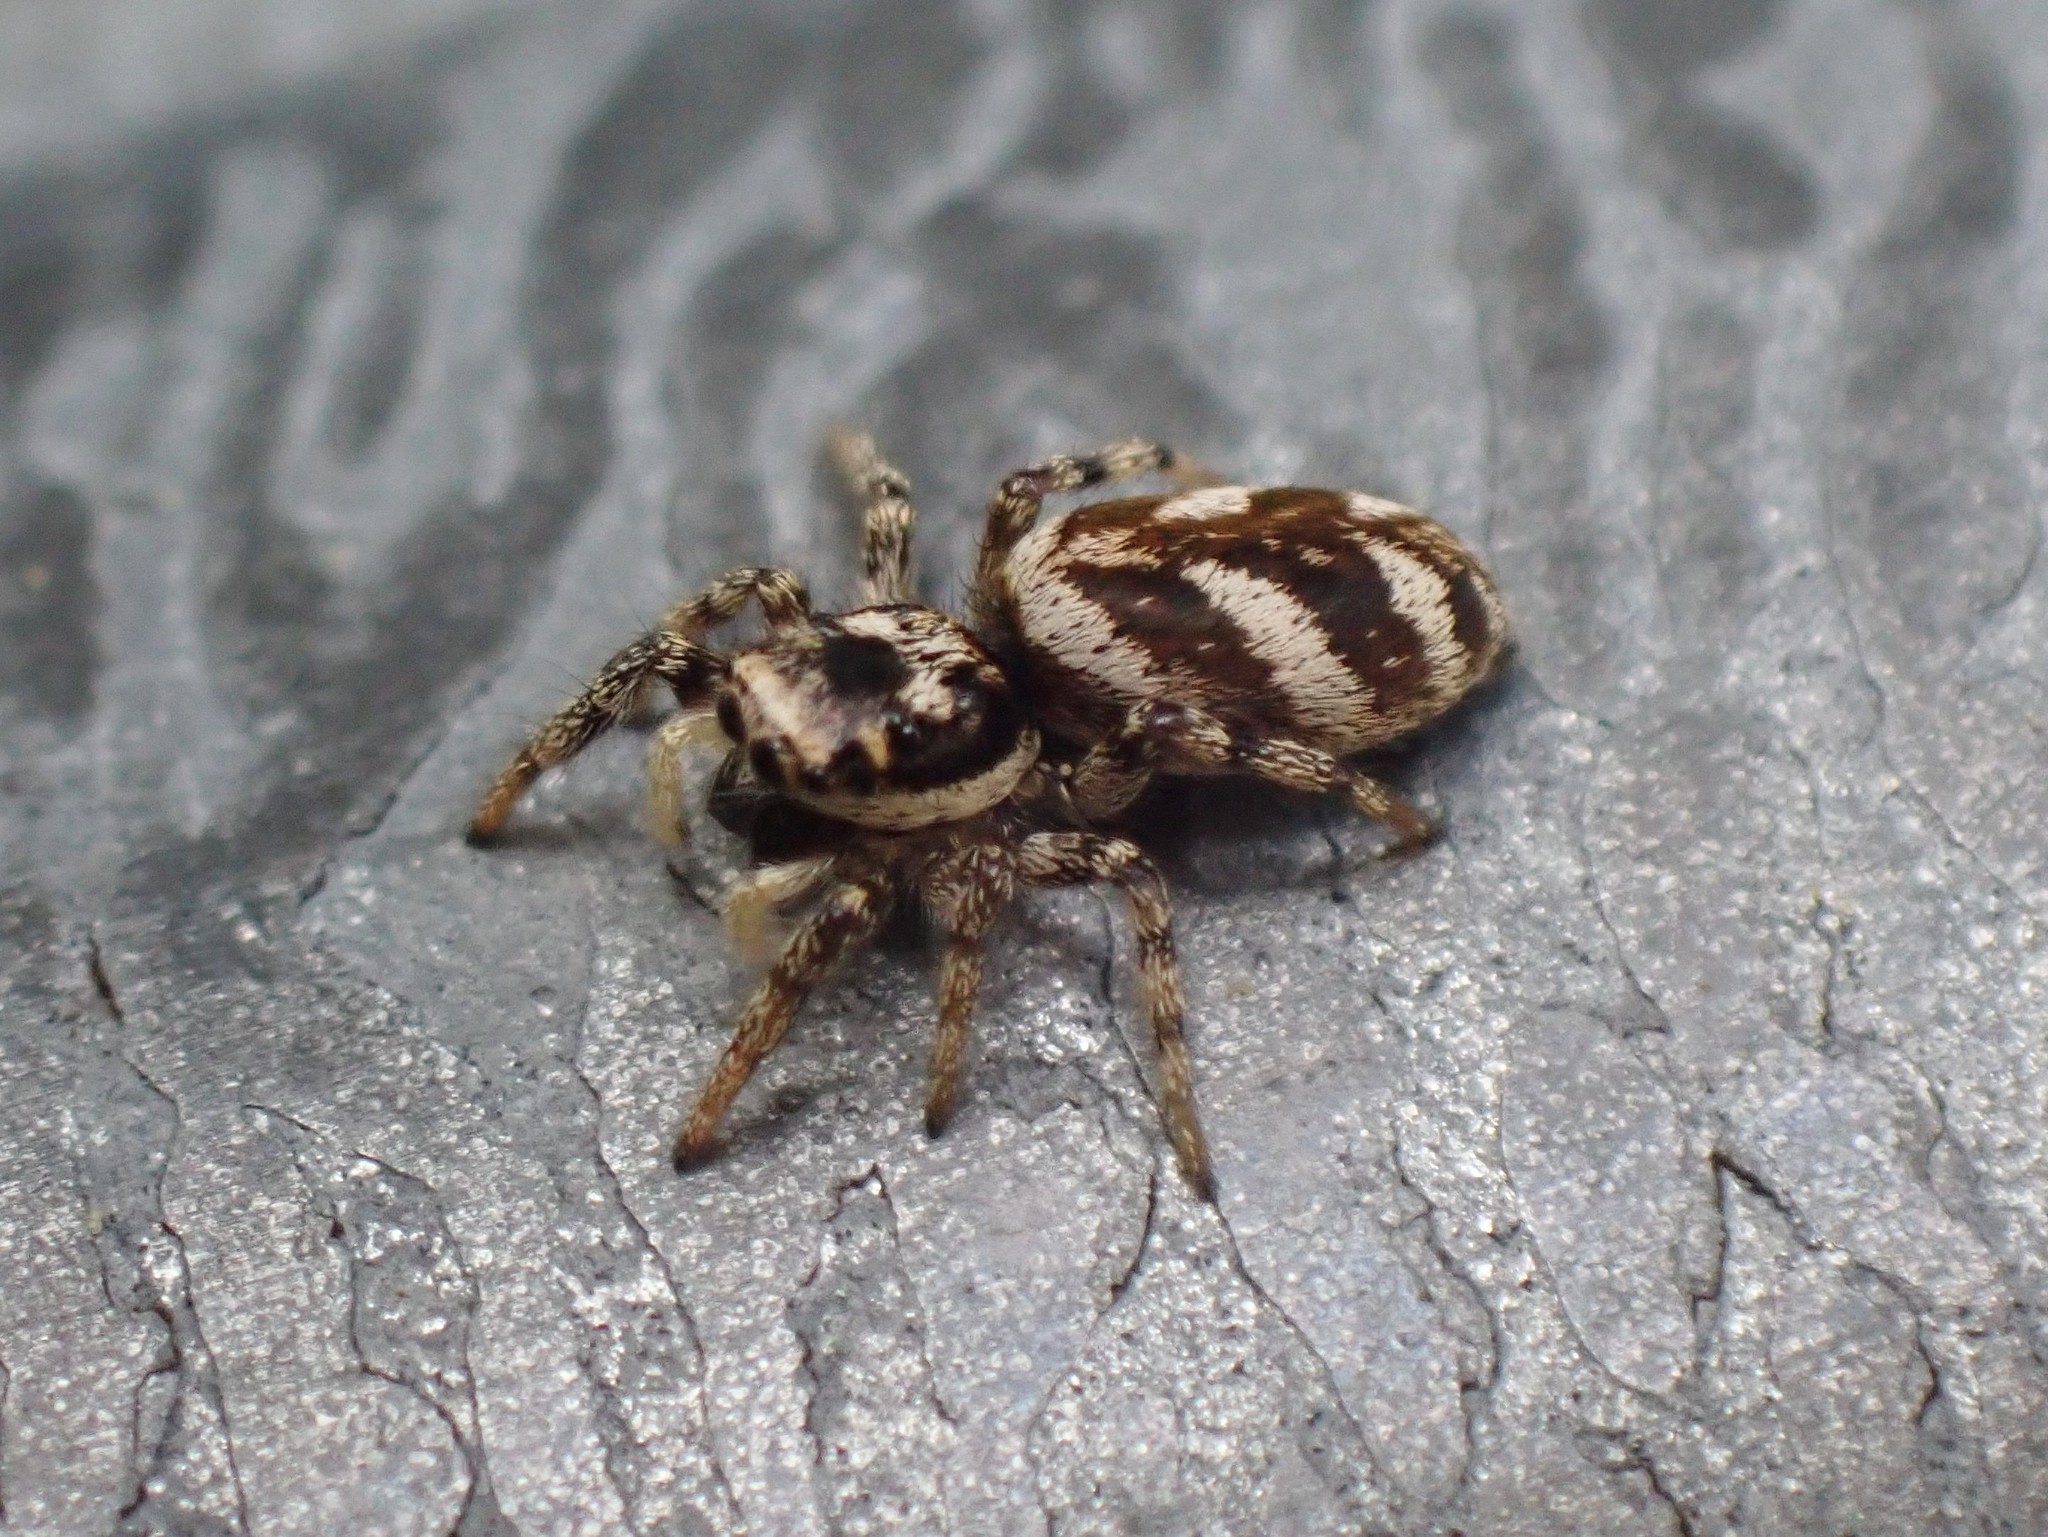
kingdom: Animalia
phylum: Arthropoda
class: Arachnida
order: Araneae
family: Salticidae
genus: Salticus
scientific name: Salticus scenicus
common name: Zebra jumper
